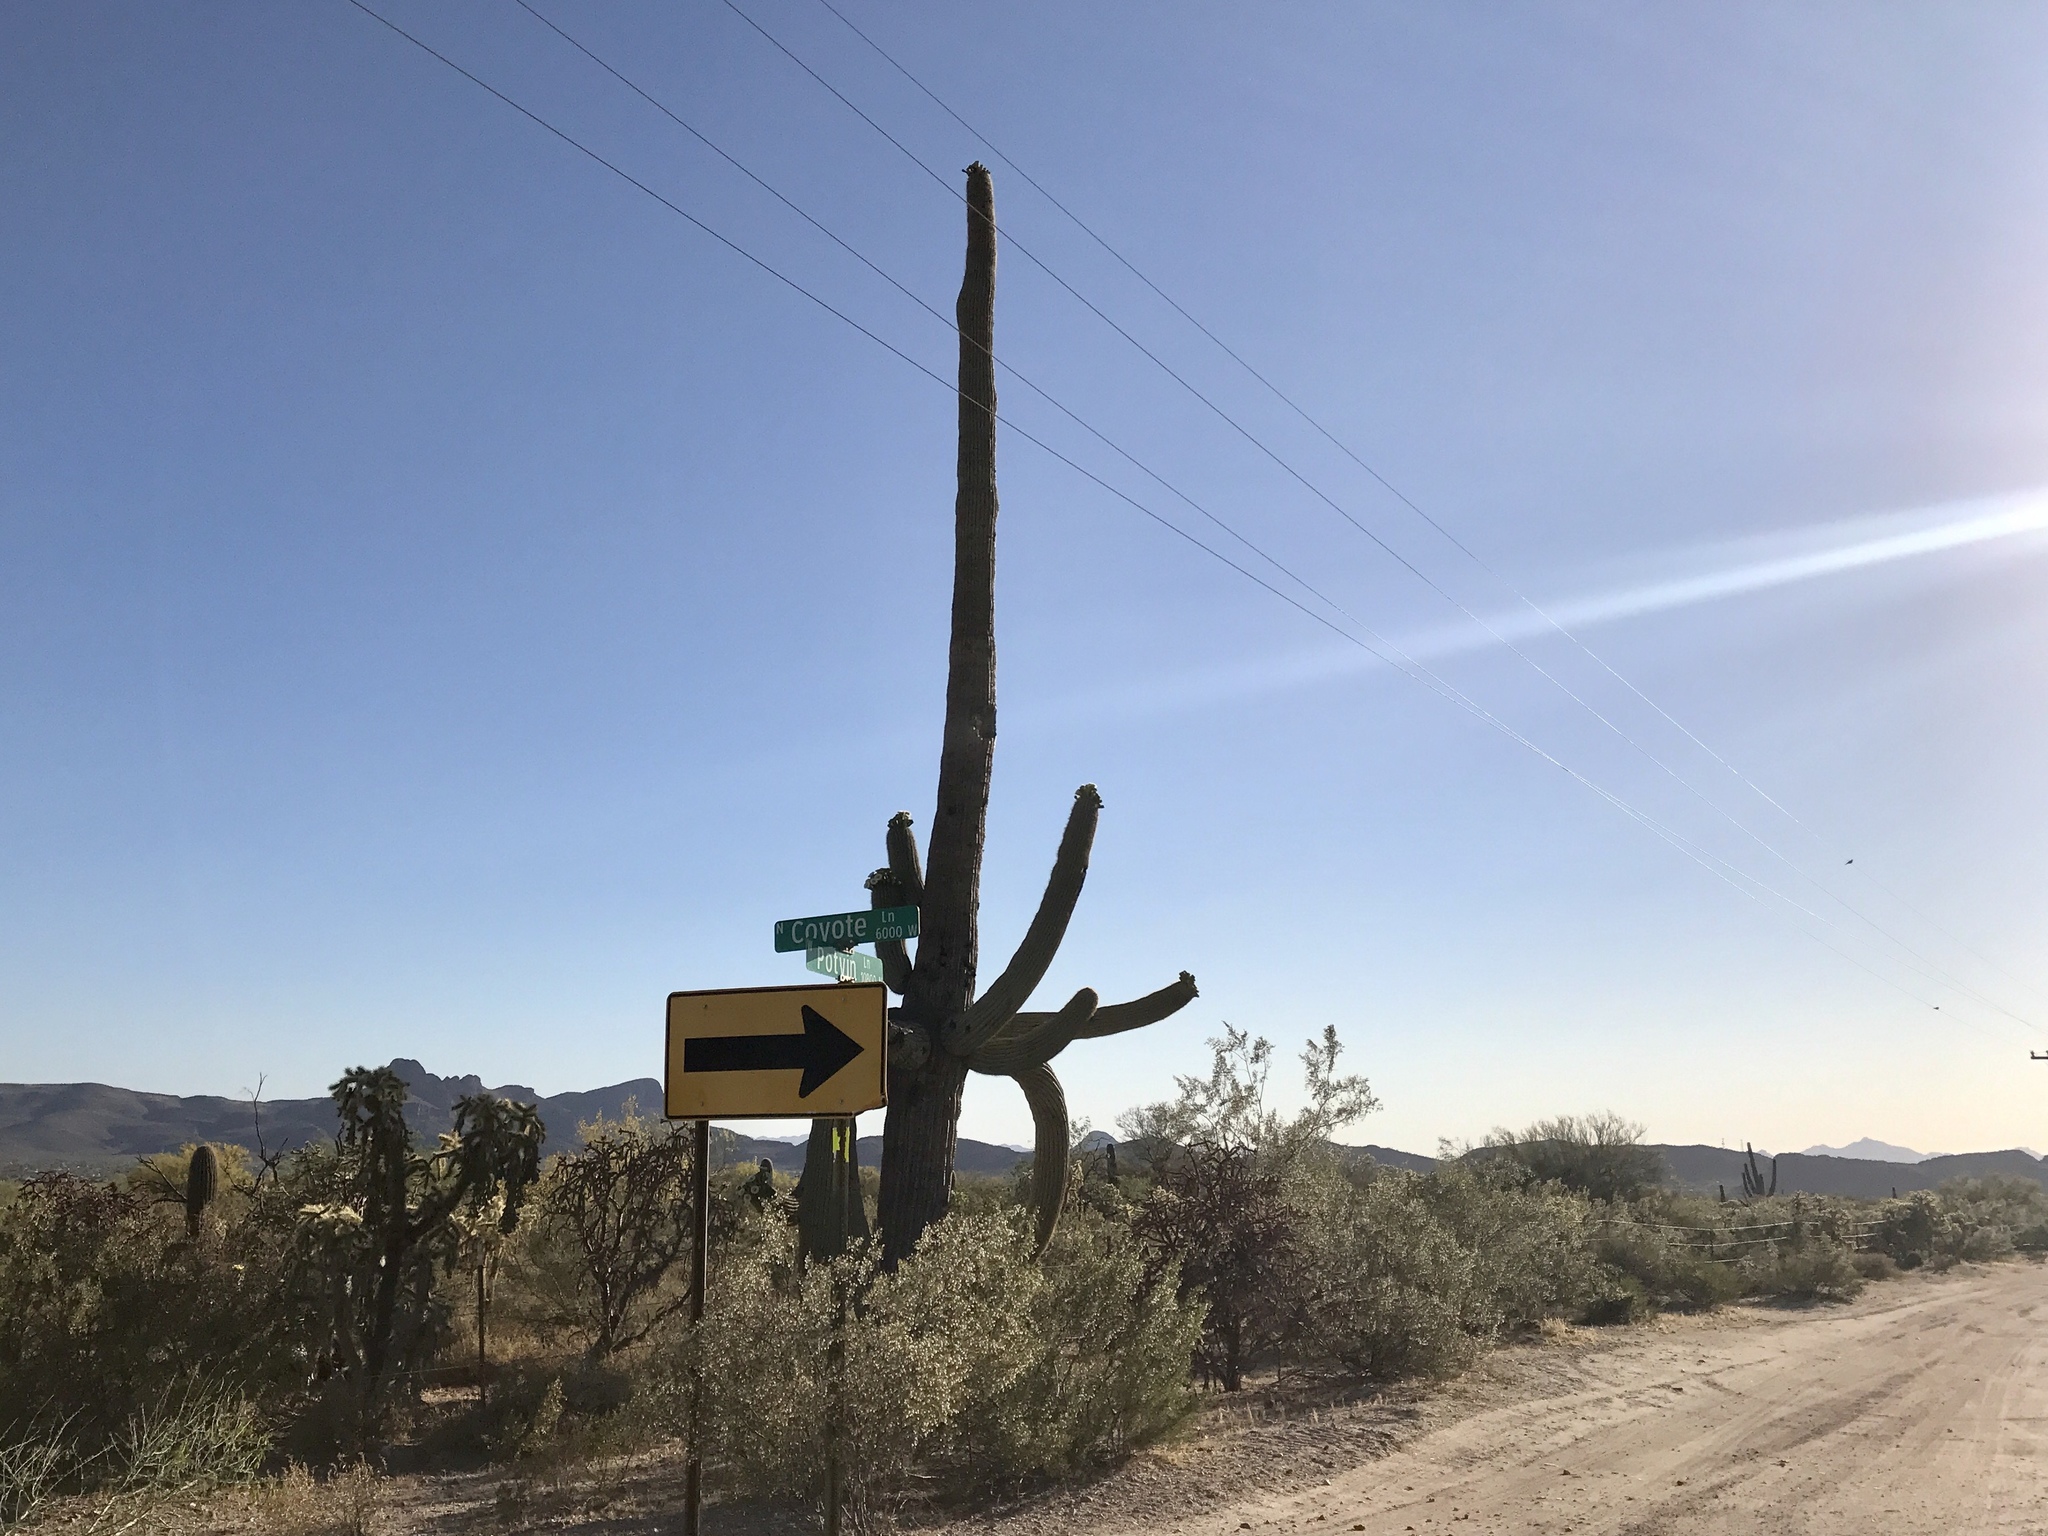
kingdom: Plantae
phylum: Tracheophyta
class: Magnoliopsida
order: Caryophyllales
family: Cactaceae
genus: Carnegiea
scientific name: Carnegiea gigantea
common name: Saguaro
